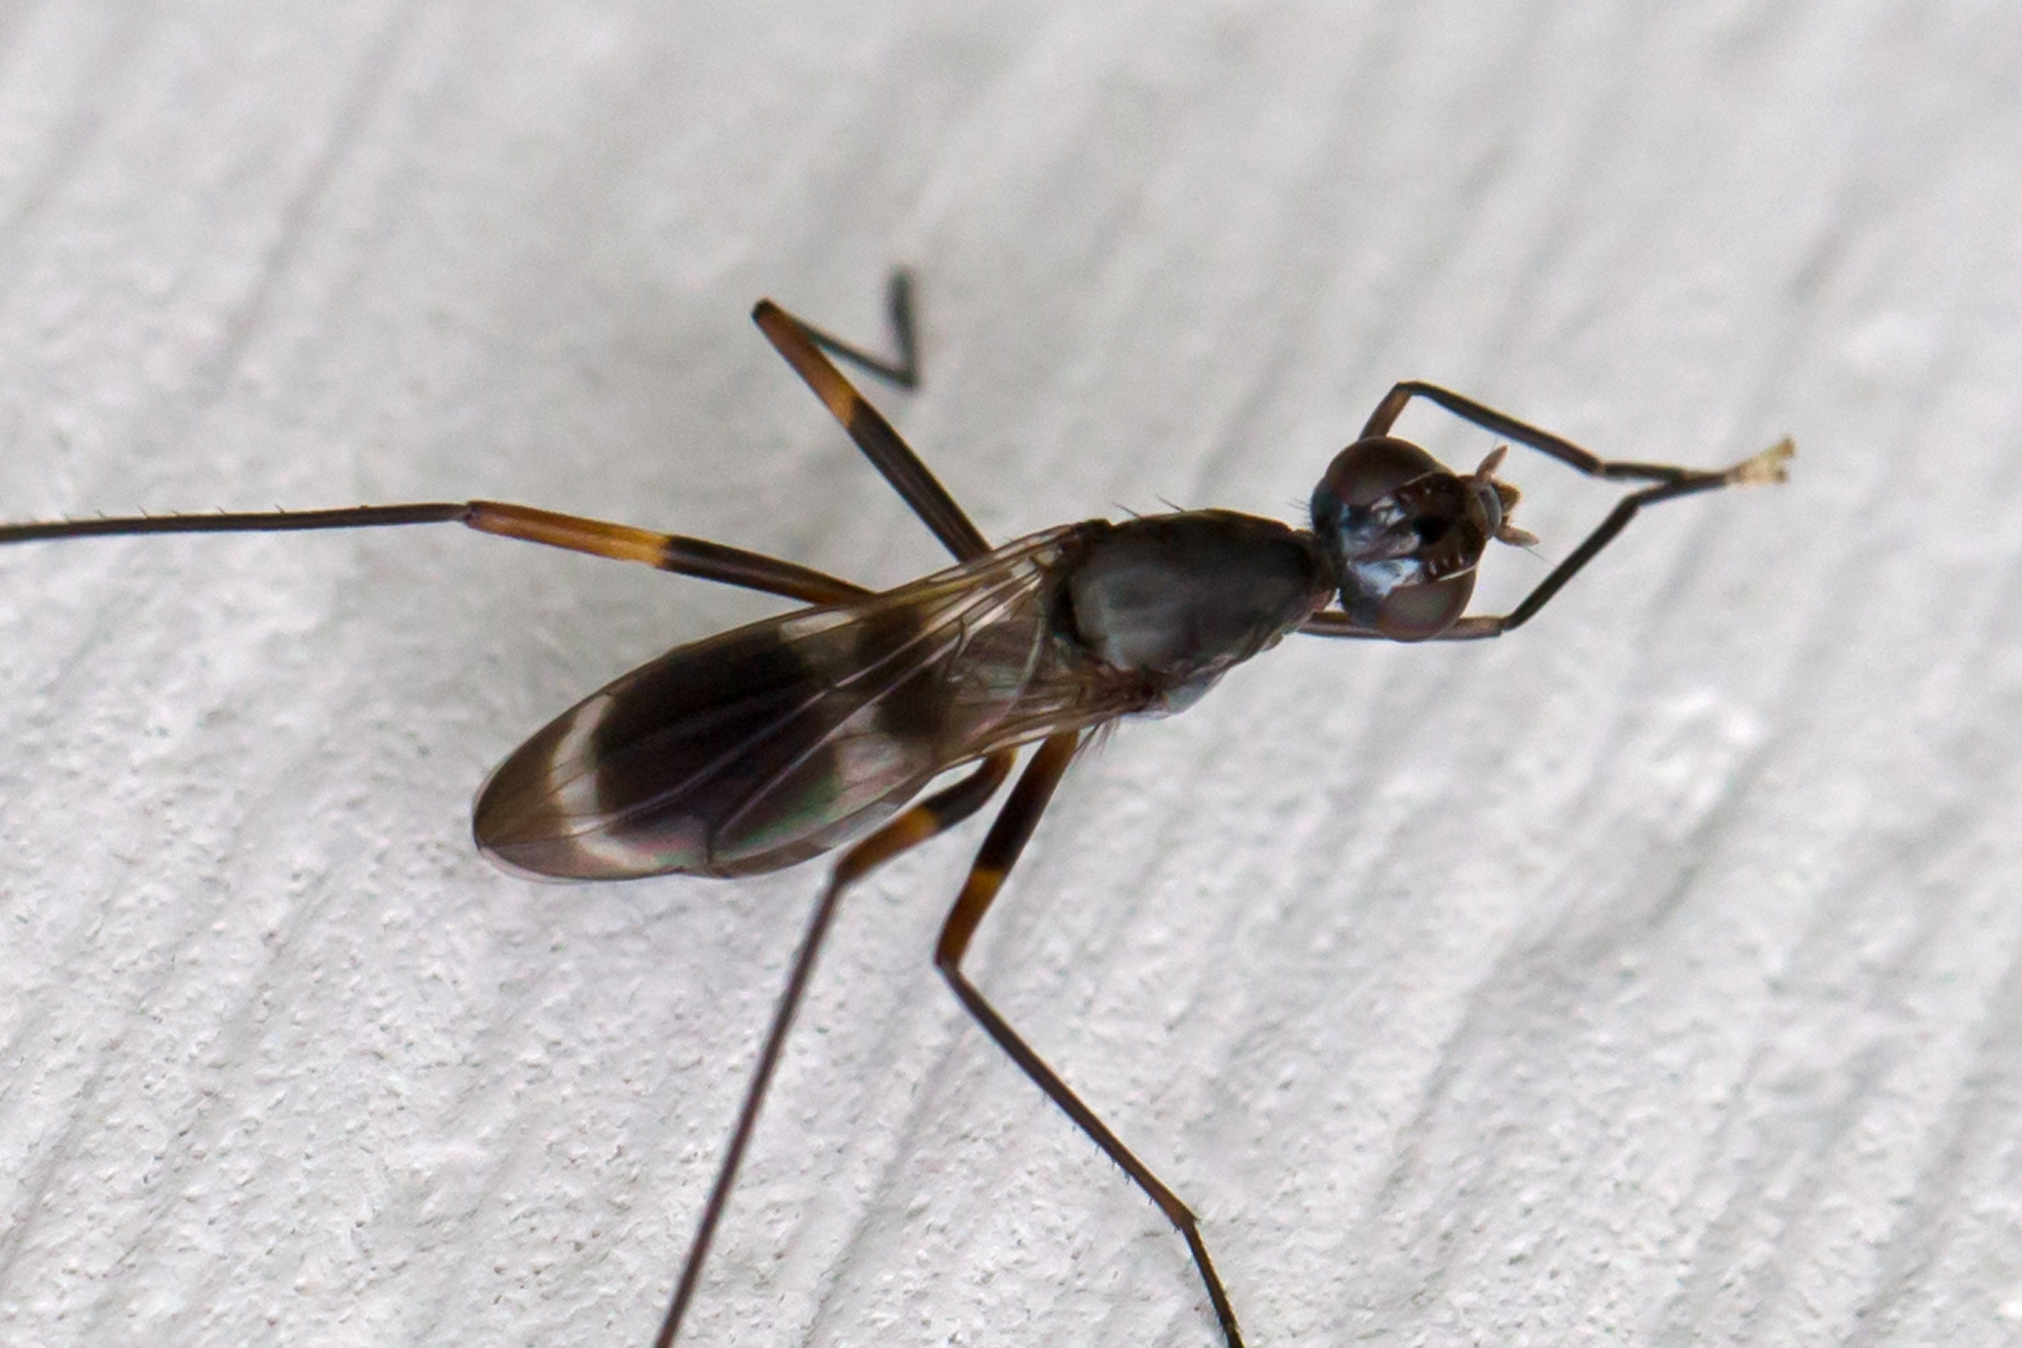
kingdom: Animalia
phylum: Arthropoda
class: Insecta
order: Diptera
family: Micropezidae
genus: Taeniaptera
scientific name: Taeniaptera trivittata
